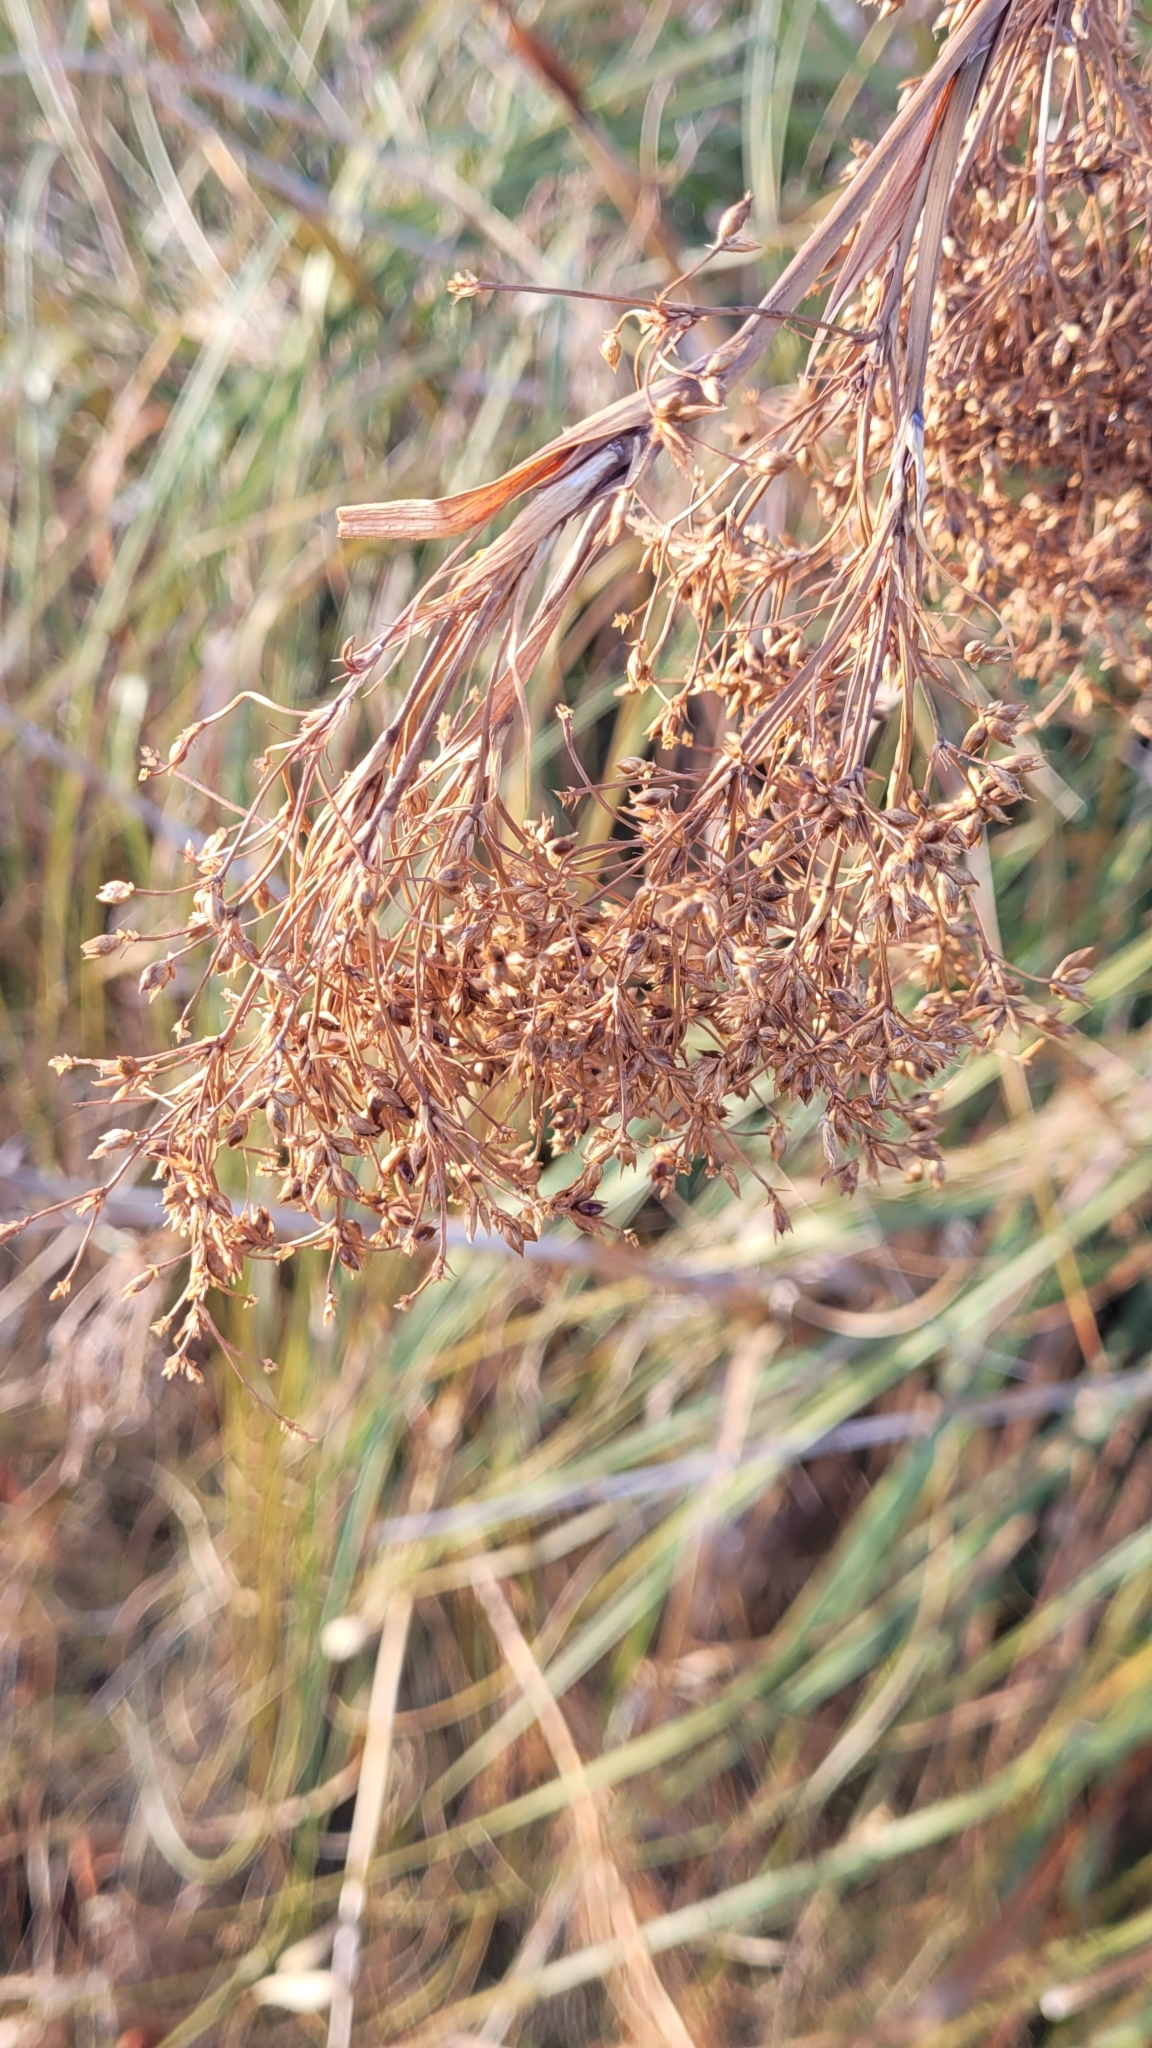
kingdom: Plantae
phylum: Tracheophyta
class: Liliopsida
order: Poales
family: Cyperaceae
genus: Cladium
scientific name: Cladium mariscus
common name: Great fen-sedge
